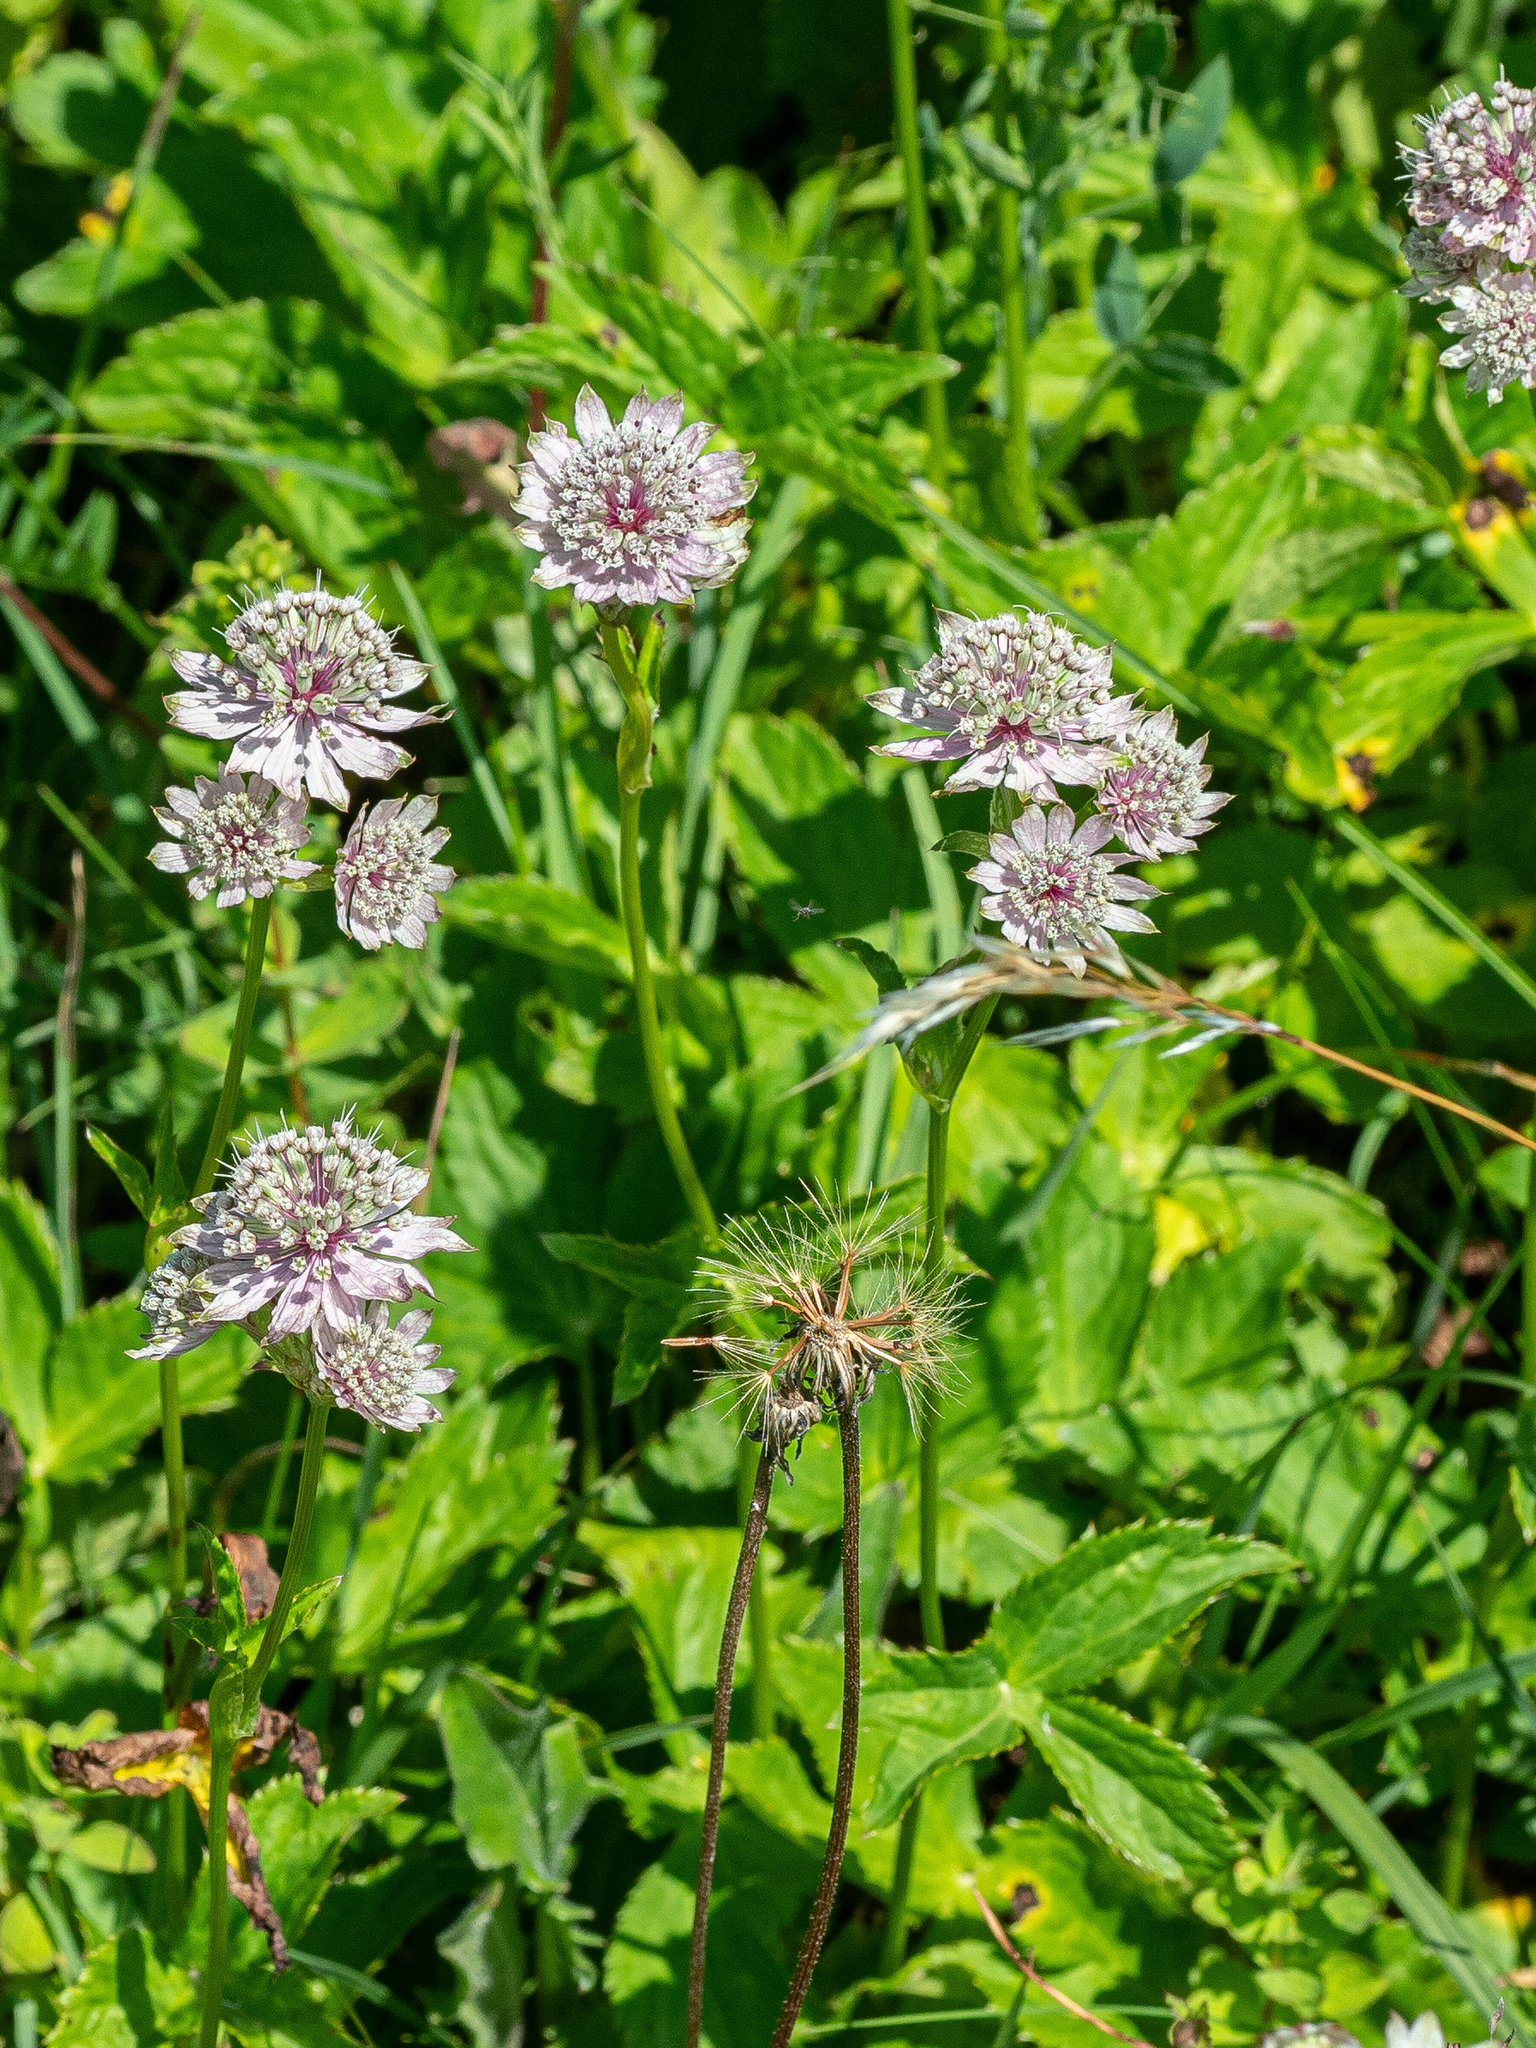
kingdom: Plantae
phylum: Tracheophyta
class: Magnoliopsida
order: Apiales
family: Apiaceae
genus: Astrantia
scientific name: Astrantia major
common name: Greater masterwort
